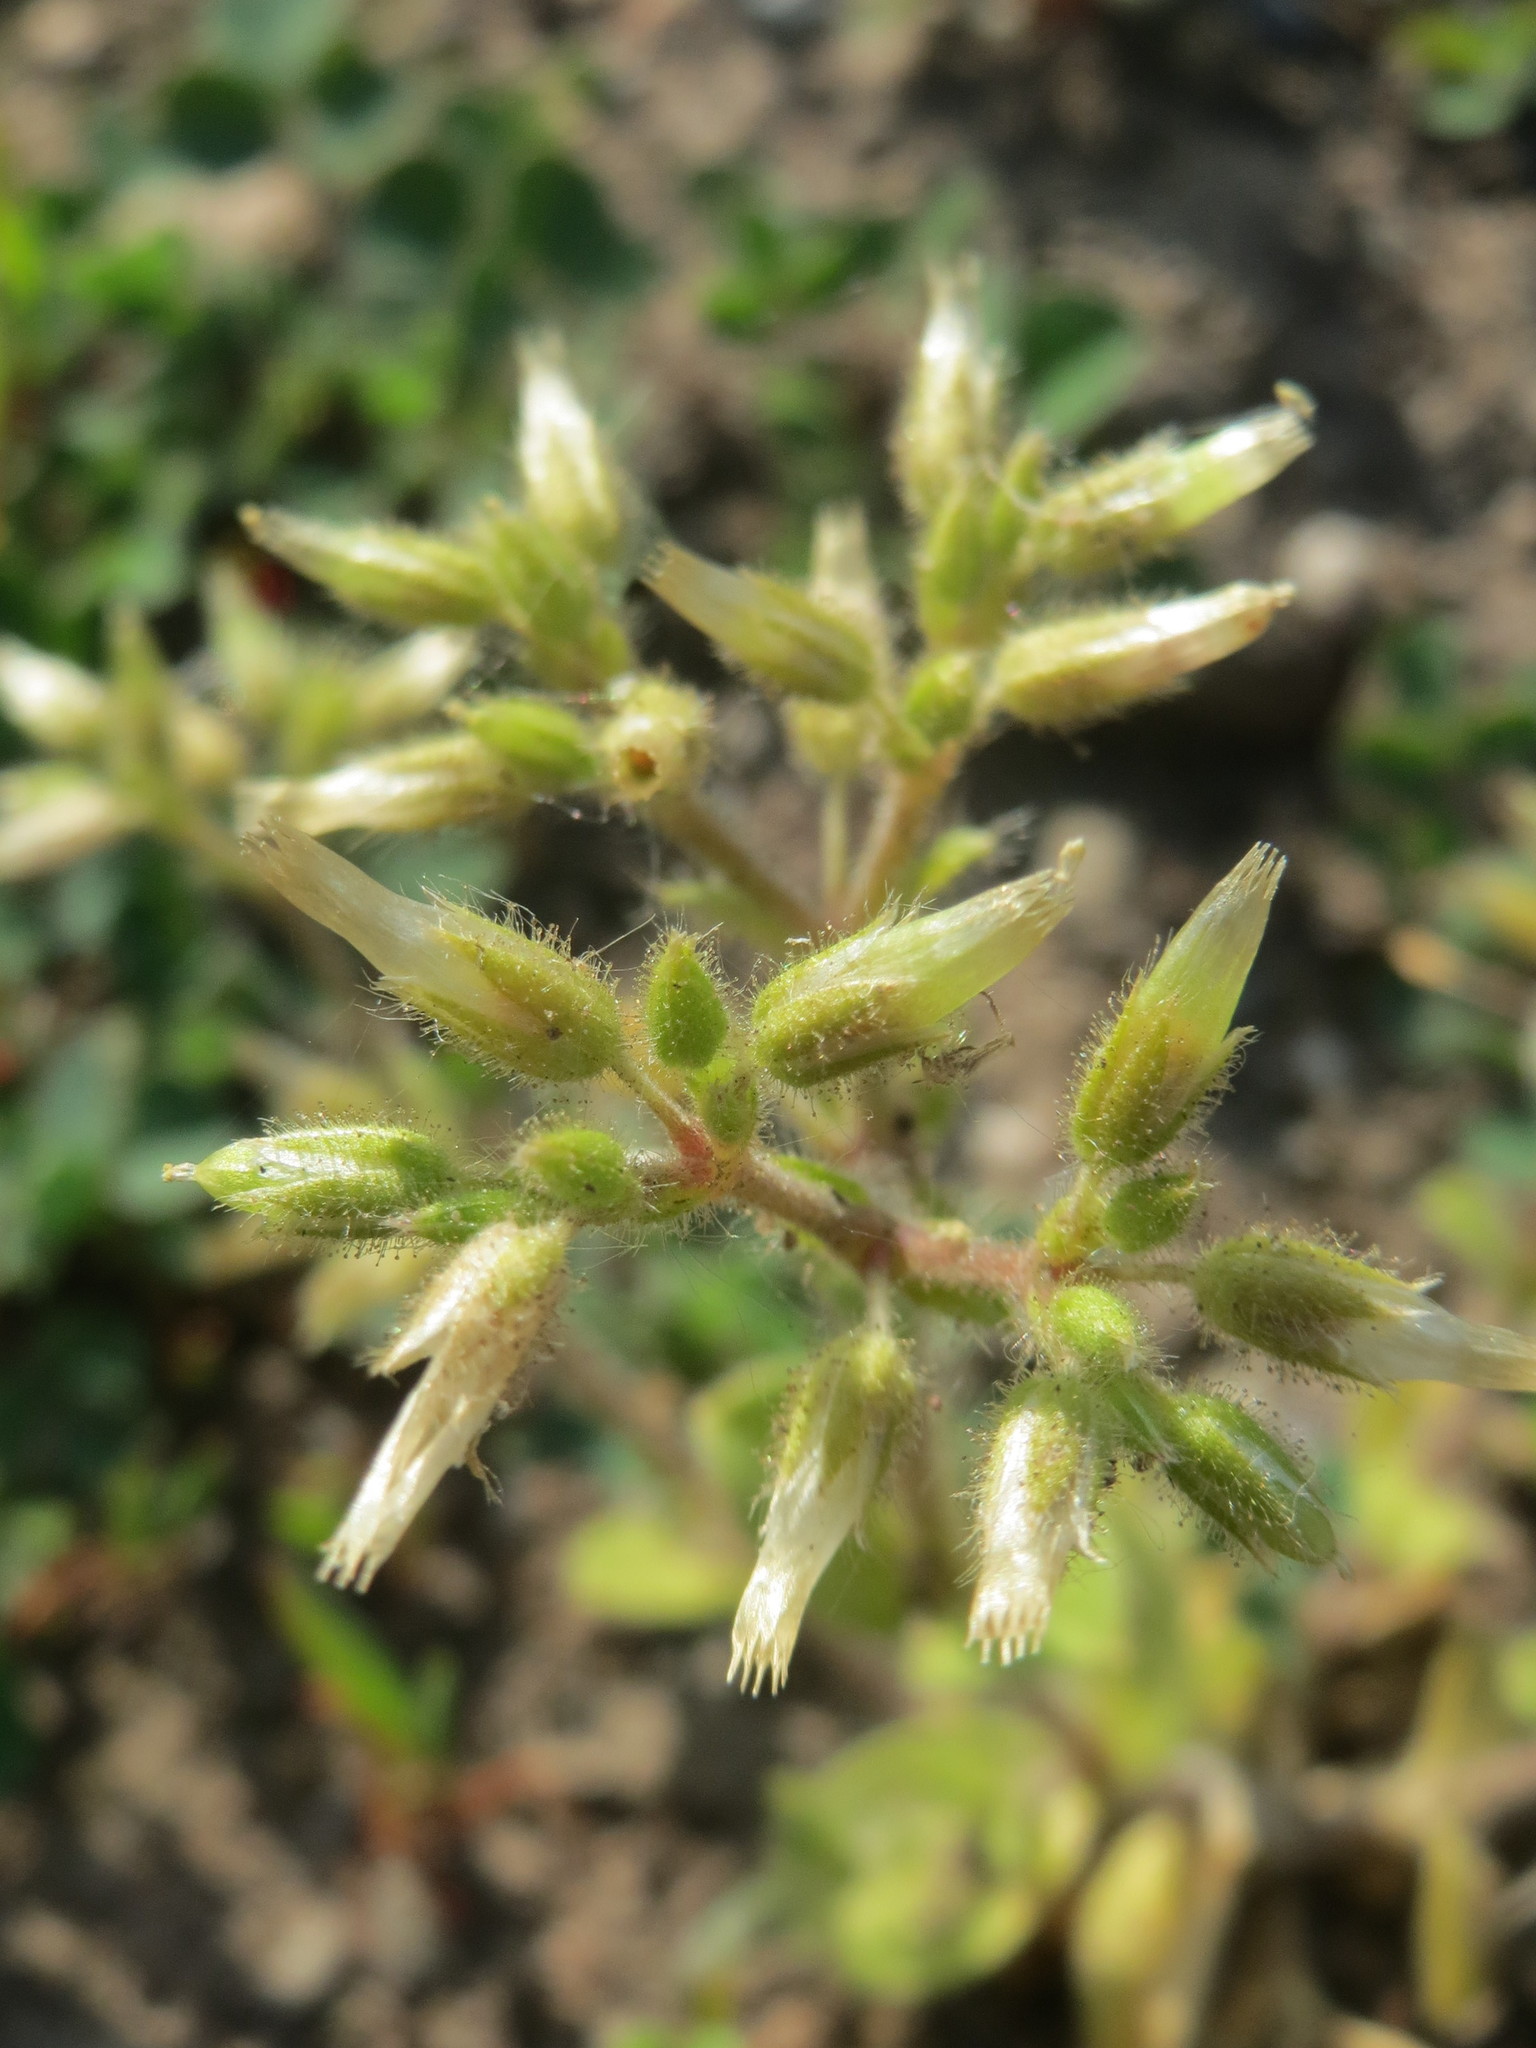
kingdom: Plantae
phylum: Tracheophyta
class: Magnoliopsida
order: Caryophyllales
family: Caryophyllaceae
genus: Cerastium
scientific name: Cerastium glomeratum
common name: Sticky chickweed
